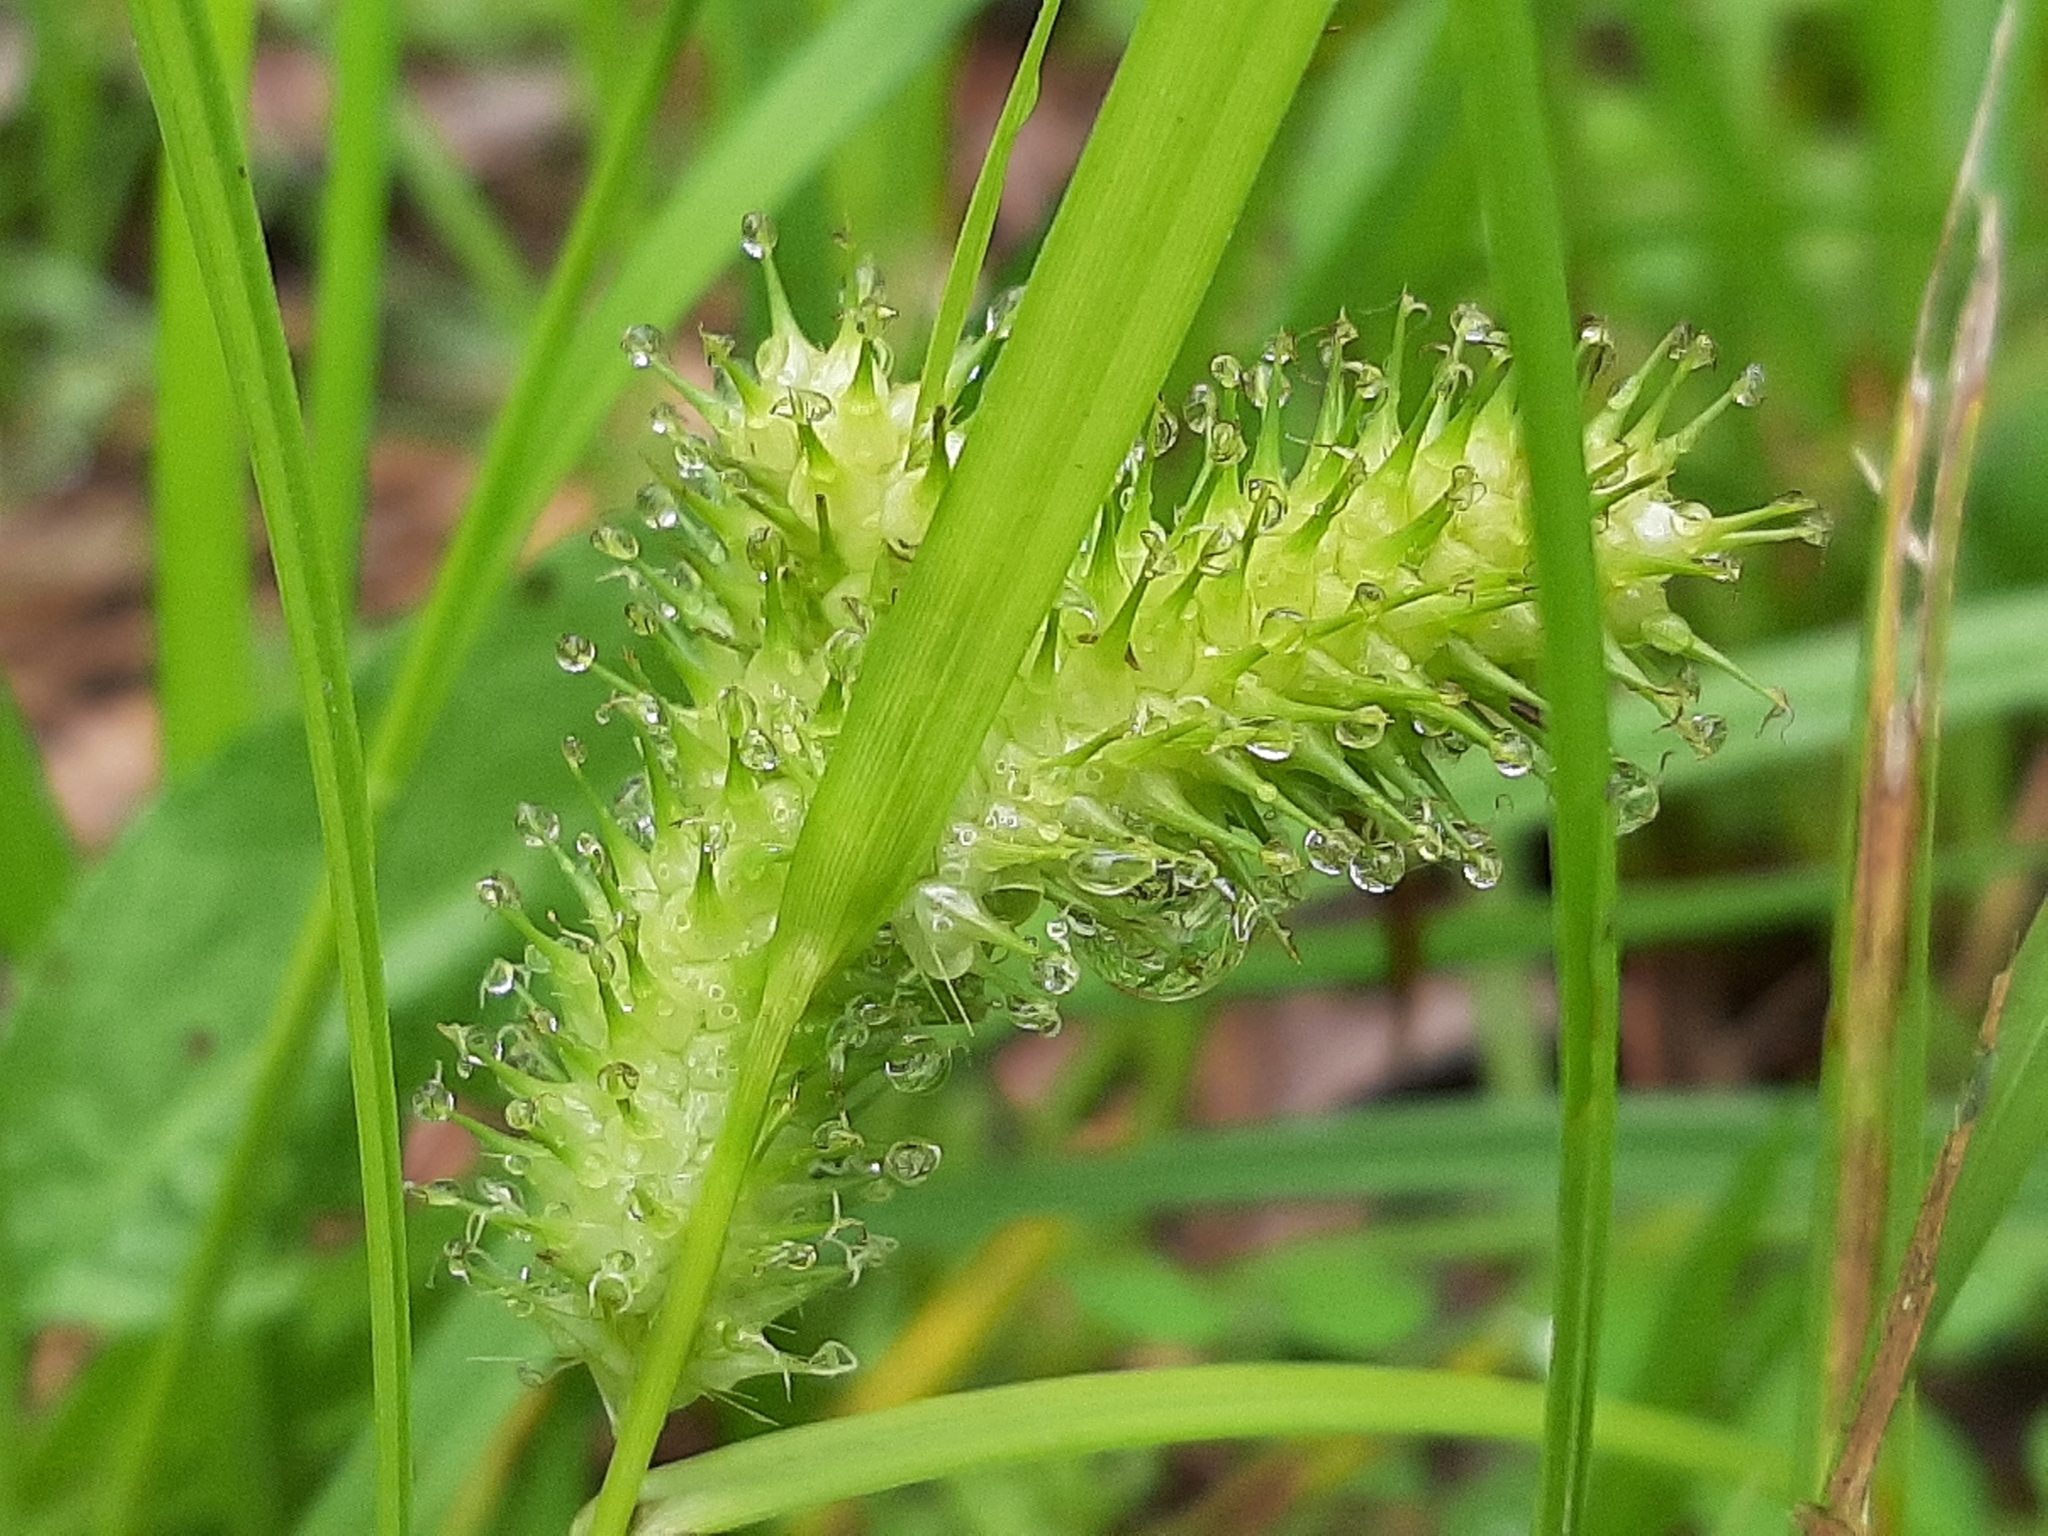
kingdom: Plantae
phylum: Tracheophyta
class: Liliopsida
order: Poales
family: Cyperaceae
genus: Carex
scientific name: Carex lurida
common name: Sallow sedge
